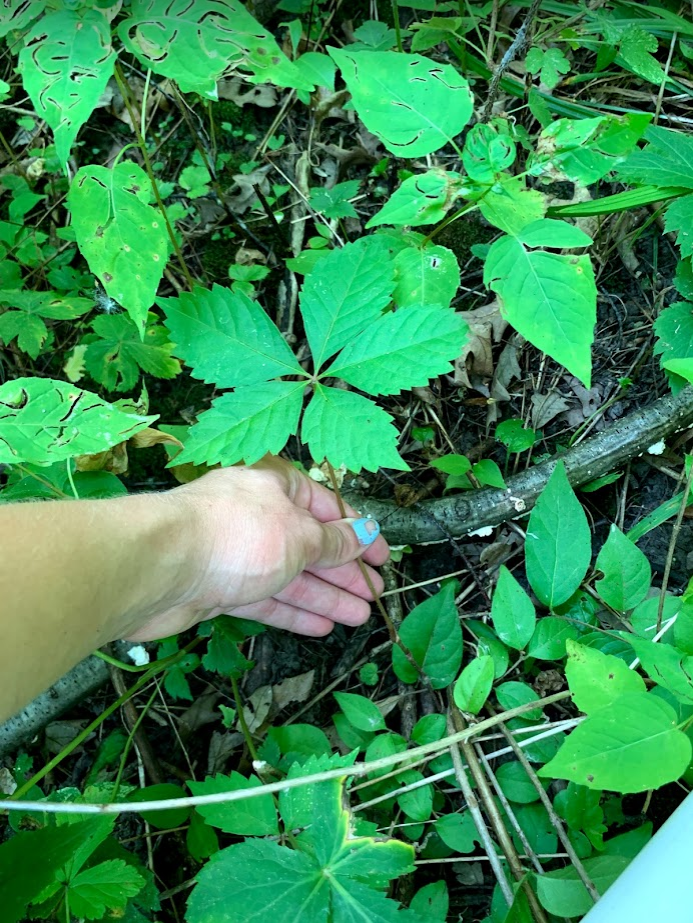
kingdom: Plantae
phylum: Tracheophyta
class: Magnoliopsida
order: Vitales
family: Vitaceae
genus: Parthenocissus
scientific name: Parthenocissus quinquefolia
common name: Virginia-creeper
